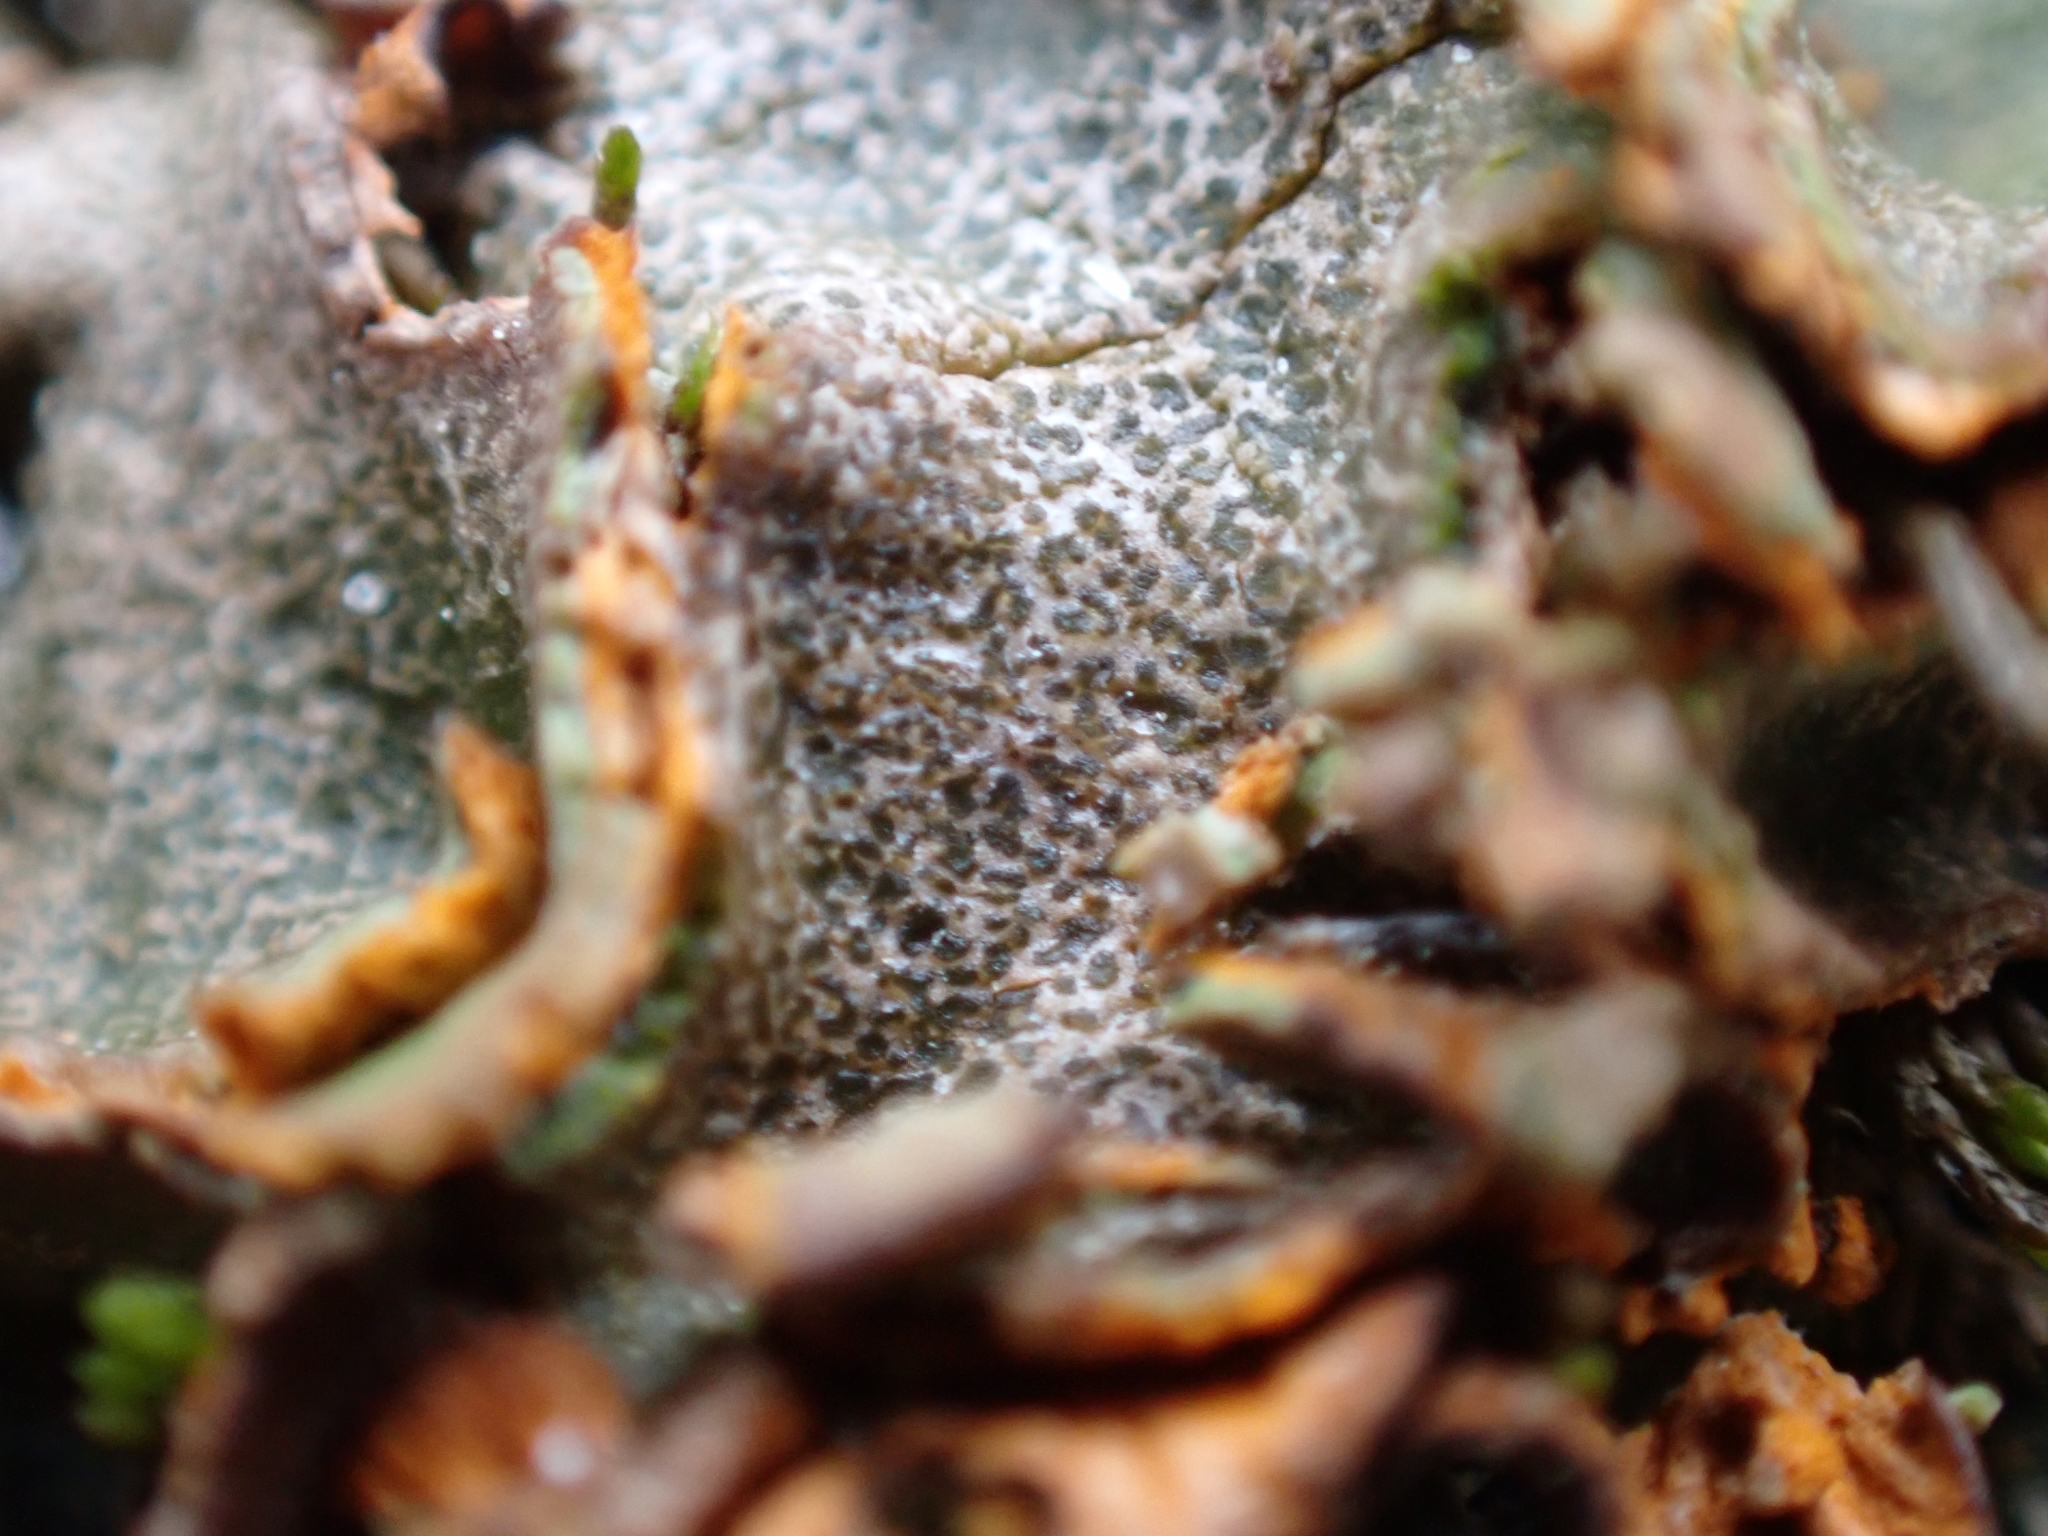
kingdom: Fungi
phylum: Ascomycota
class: Lecanoromycetes
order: Peltigerales
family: Peltigeraceae
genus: Solorina
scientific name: Solorina crocea
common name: Mountain saffron
